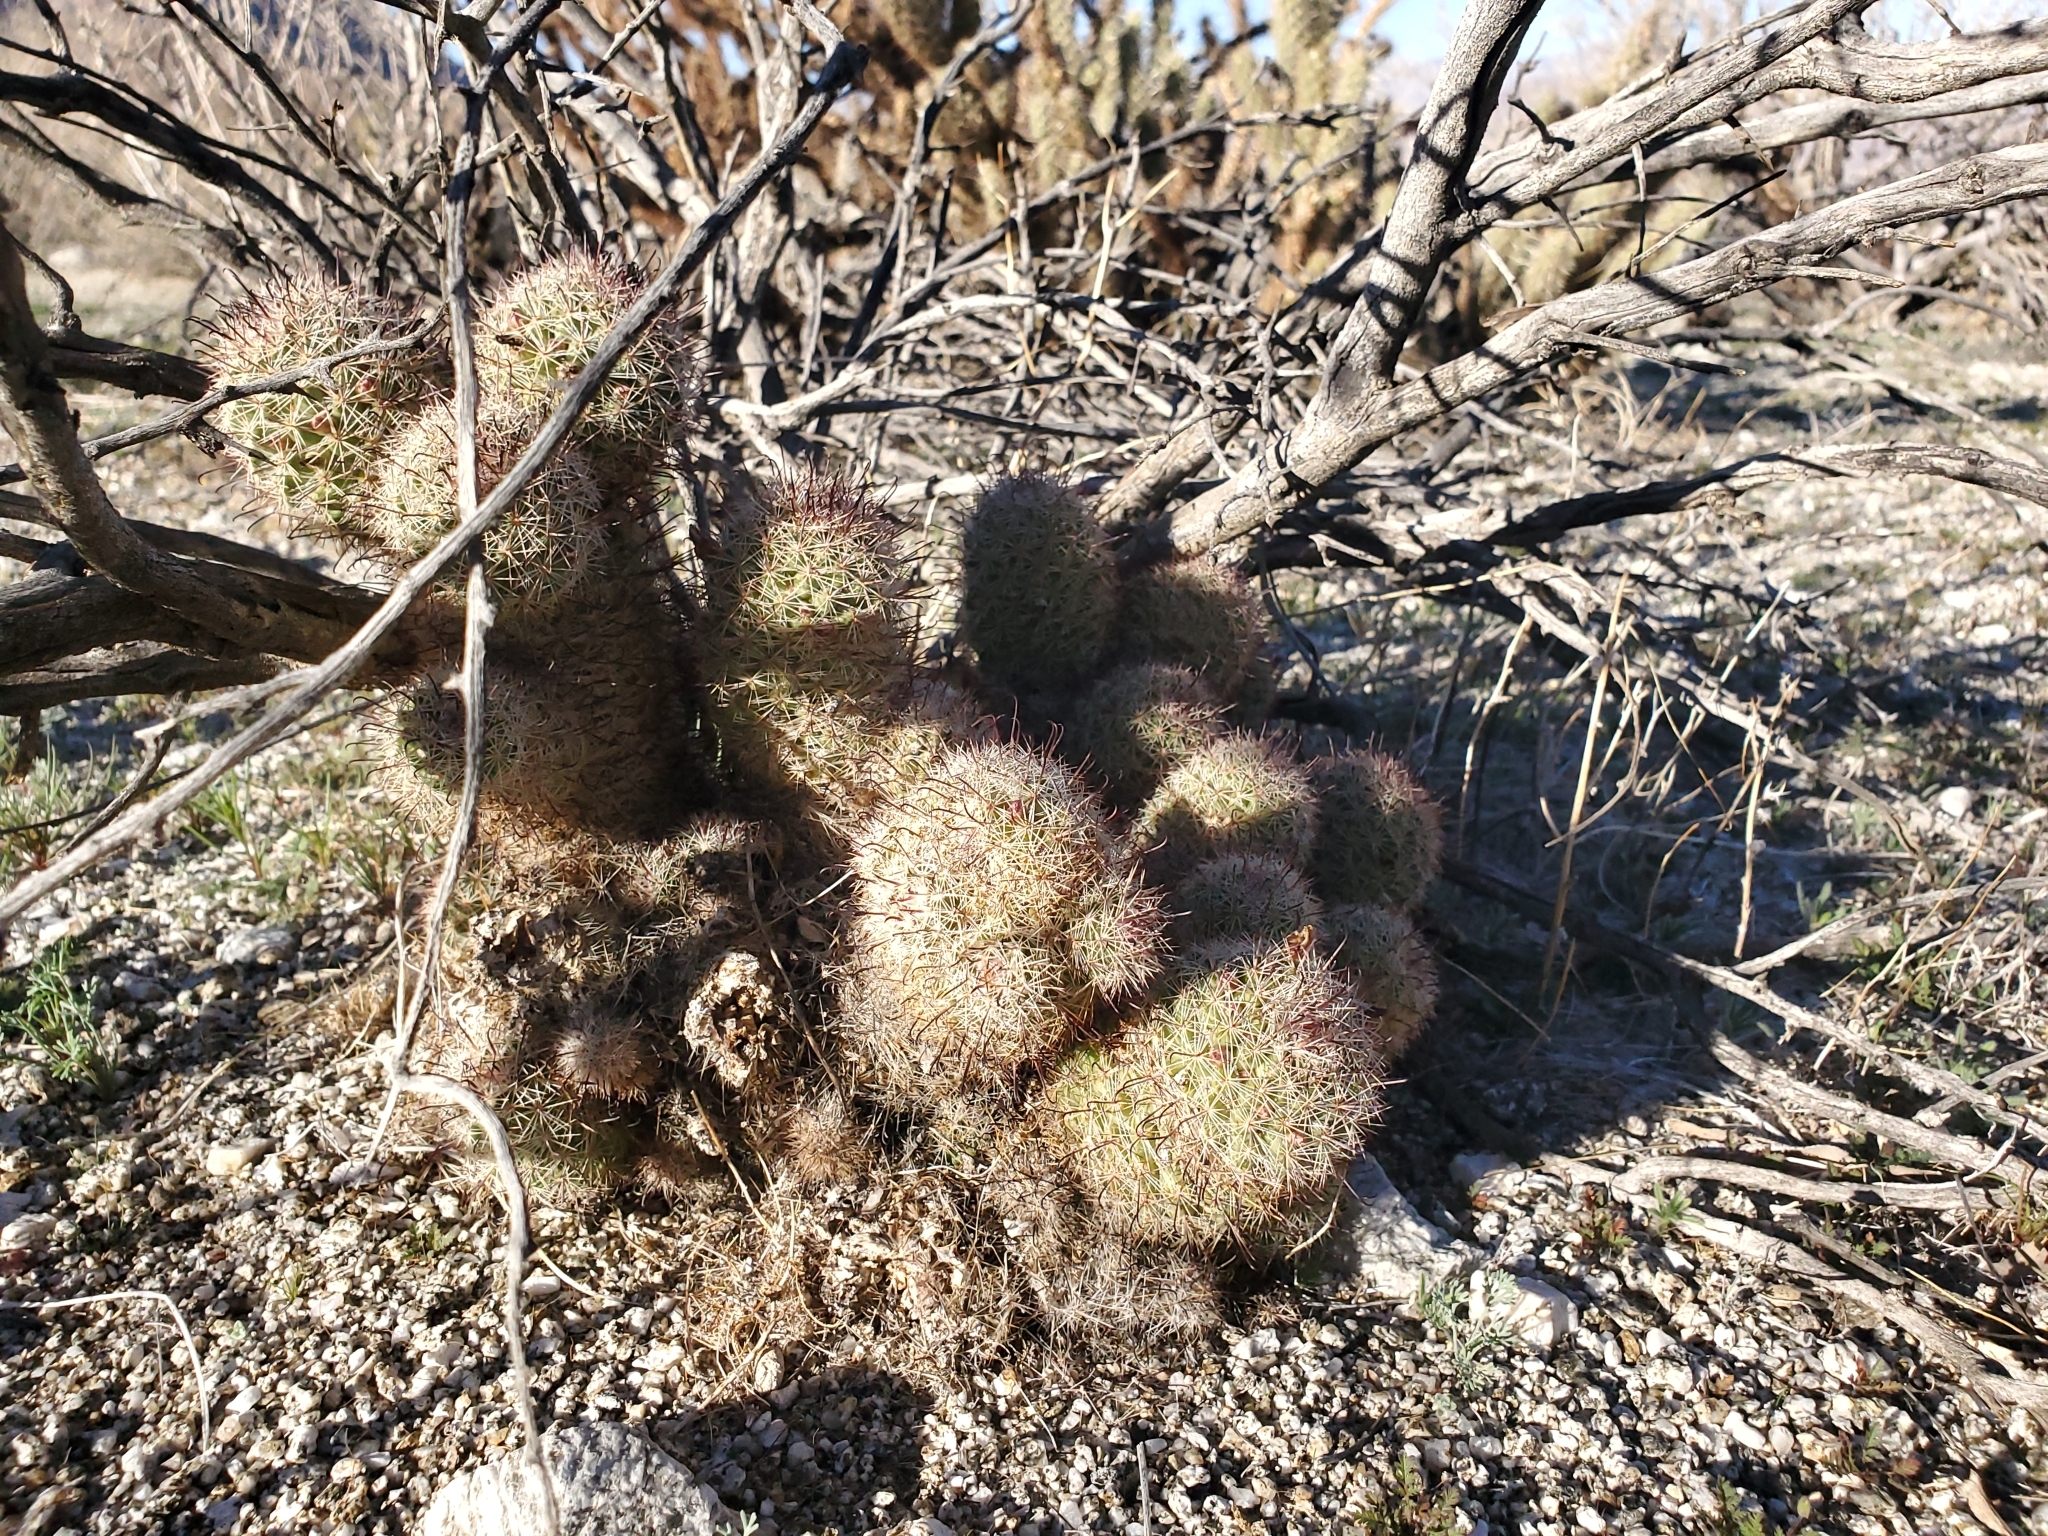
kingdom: Plantae
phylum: Tracheophyta
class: Magnoliopsida
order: Caryophyllales
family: Cactaceae
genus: Cochemiea
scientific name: Cochemiea dioica
